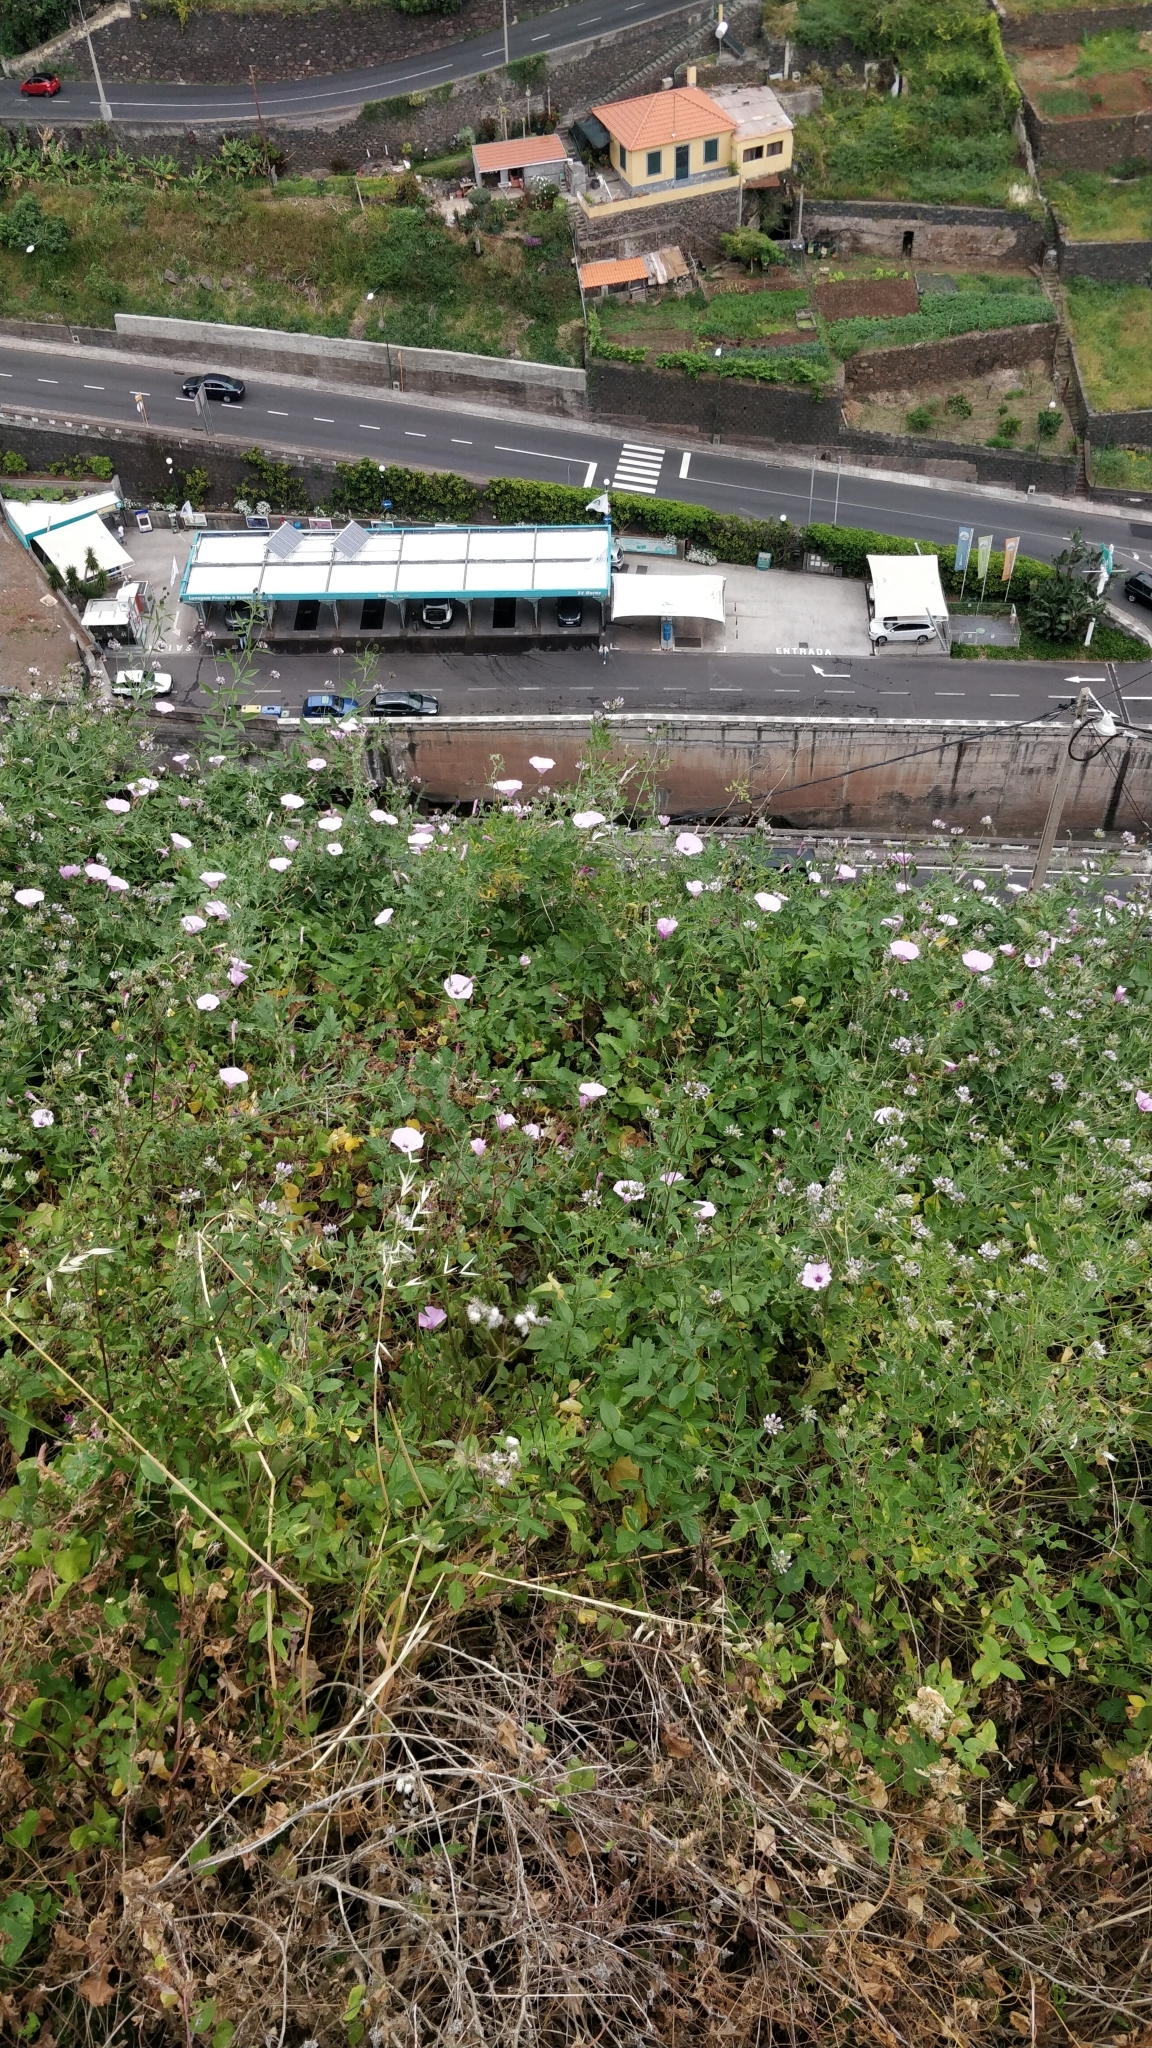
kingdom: Plantae
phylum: Tracheophyta
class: Magnoliopsida
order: Solanales
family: Convolvulaceae
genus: Convolvulus
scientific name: Convolvulus althaeoides
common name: Mallow bindweed
